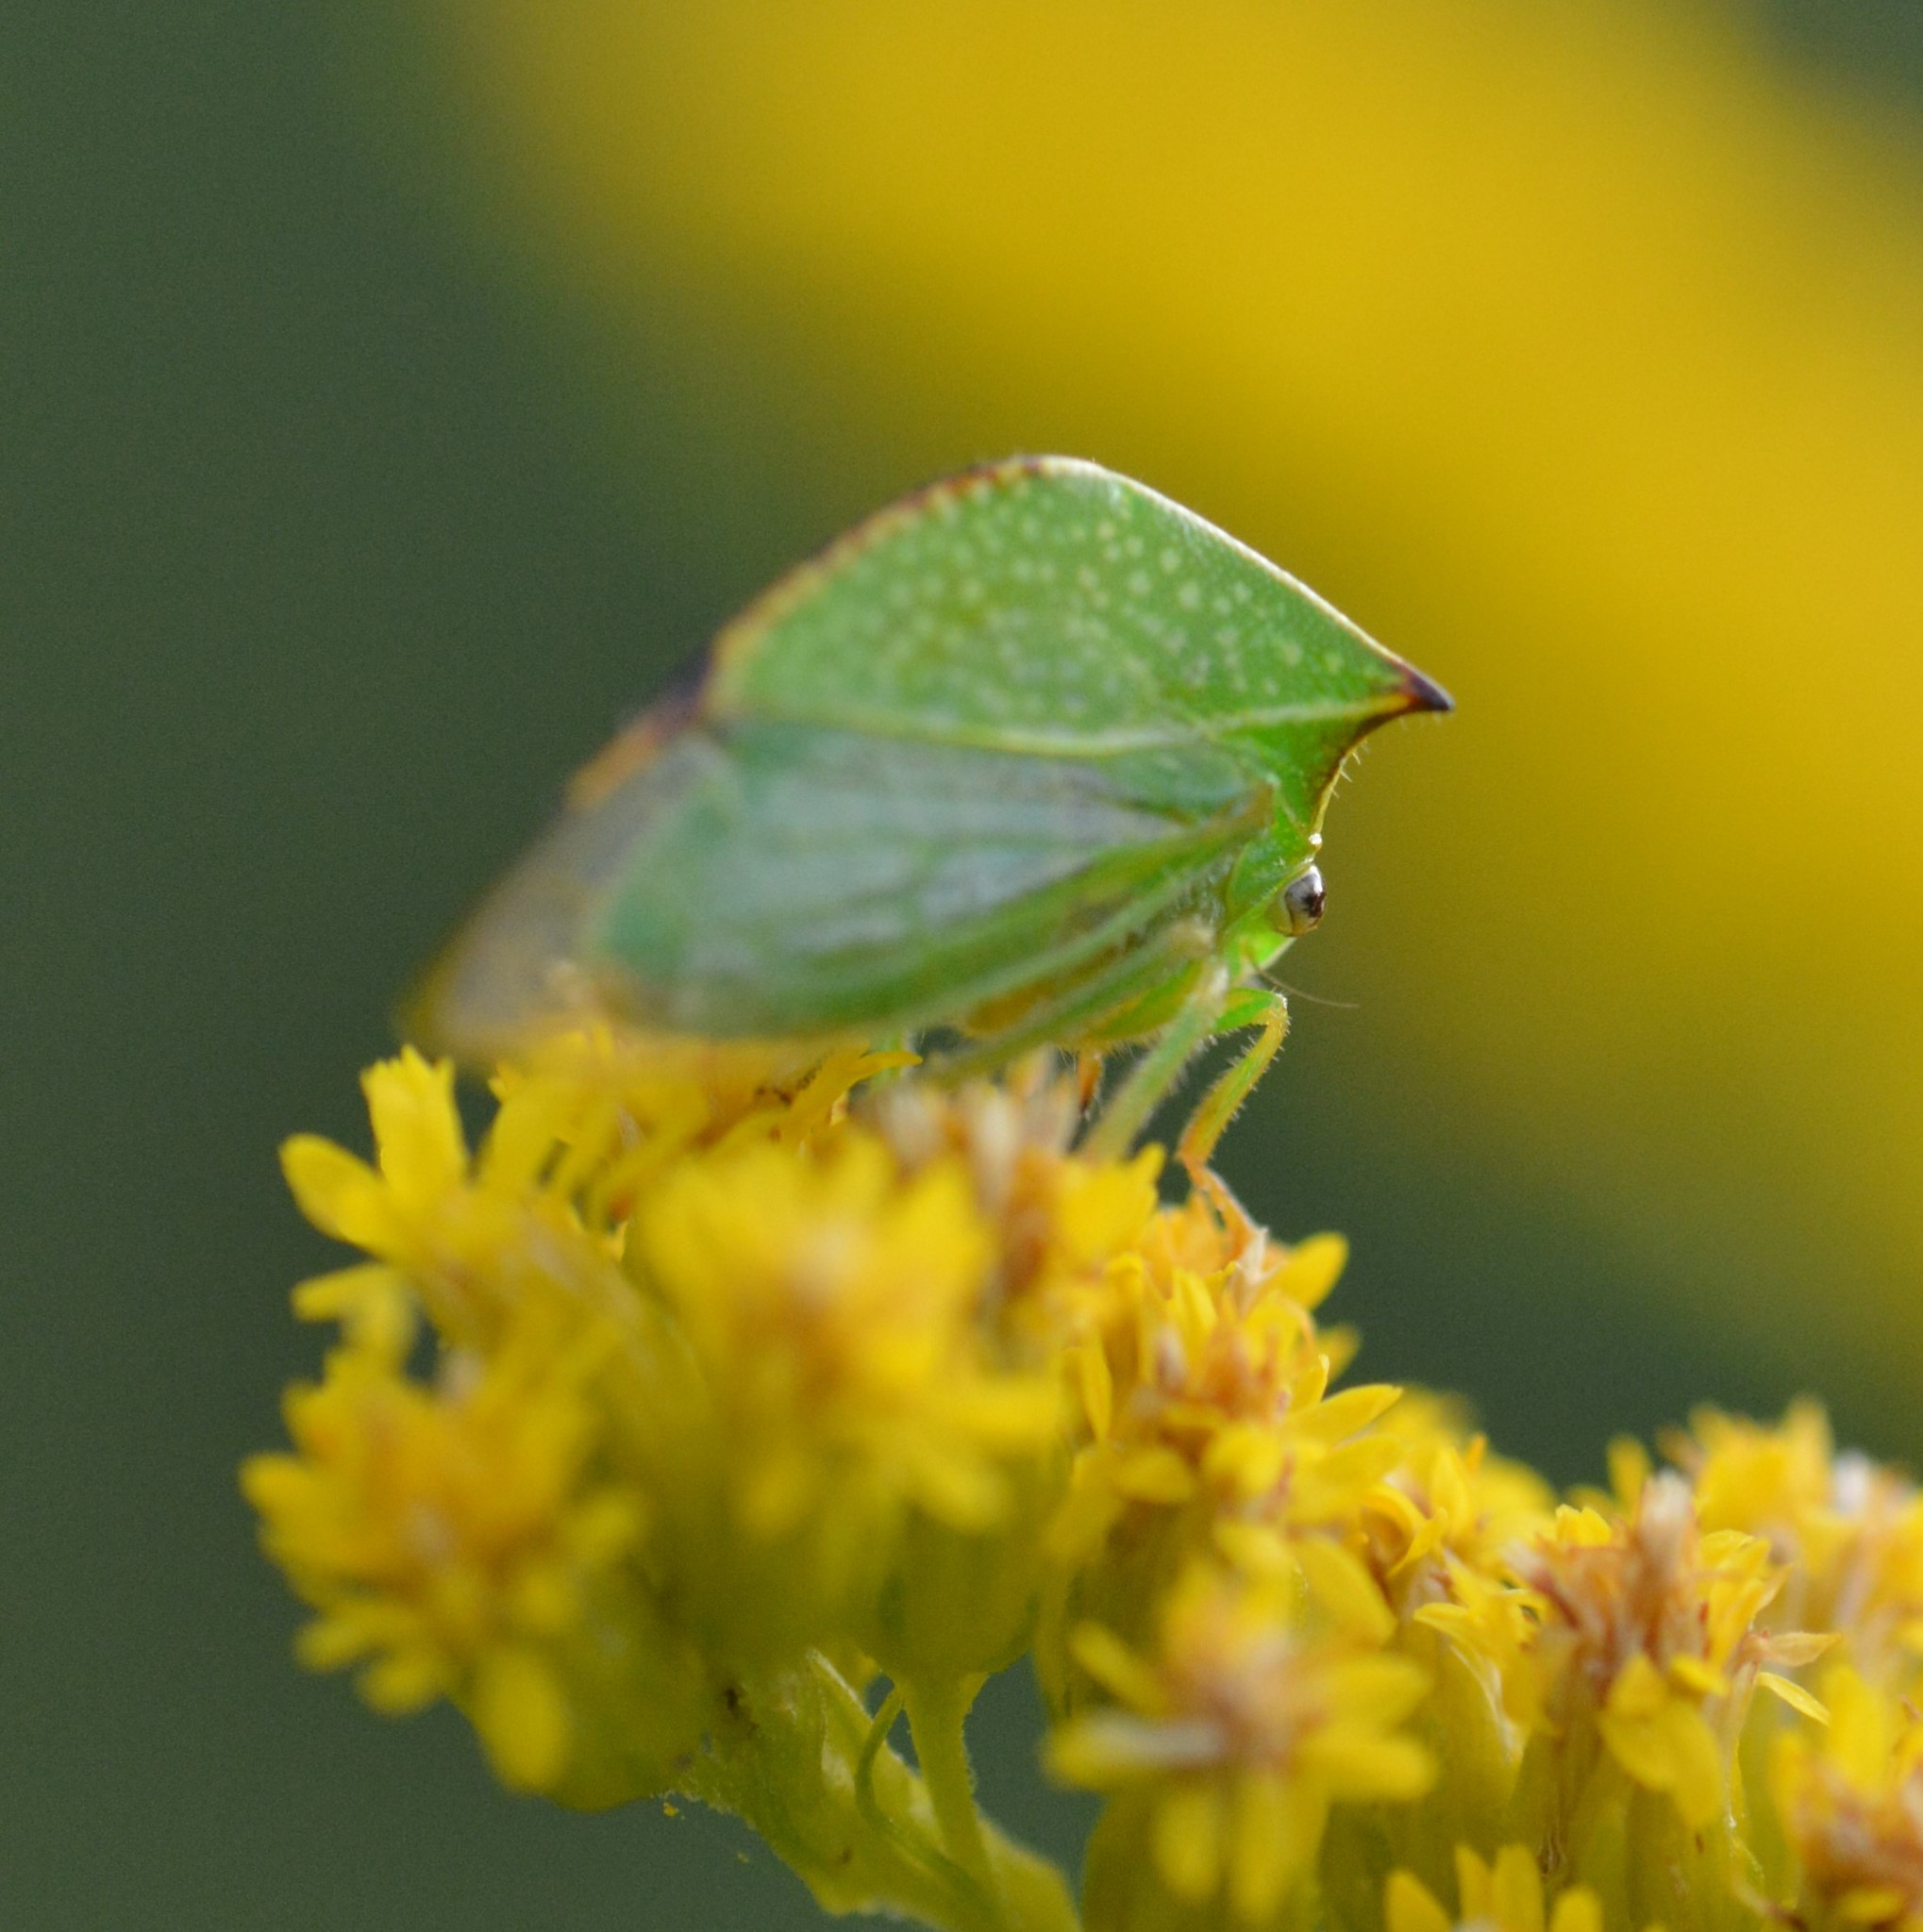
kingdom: Animalia
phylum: Arthropoda
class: Insecta
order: Hemiptera
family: Membracidae
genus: Stictocephala
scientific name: Stictocephala bisonia
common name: American buffalo treehopper
